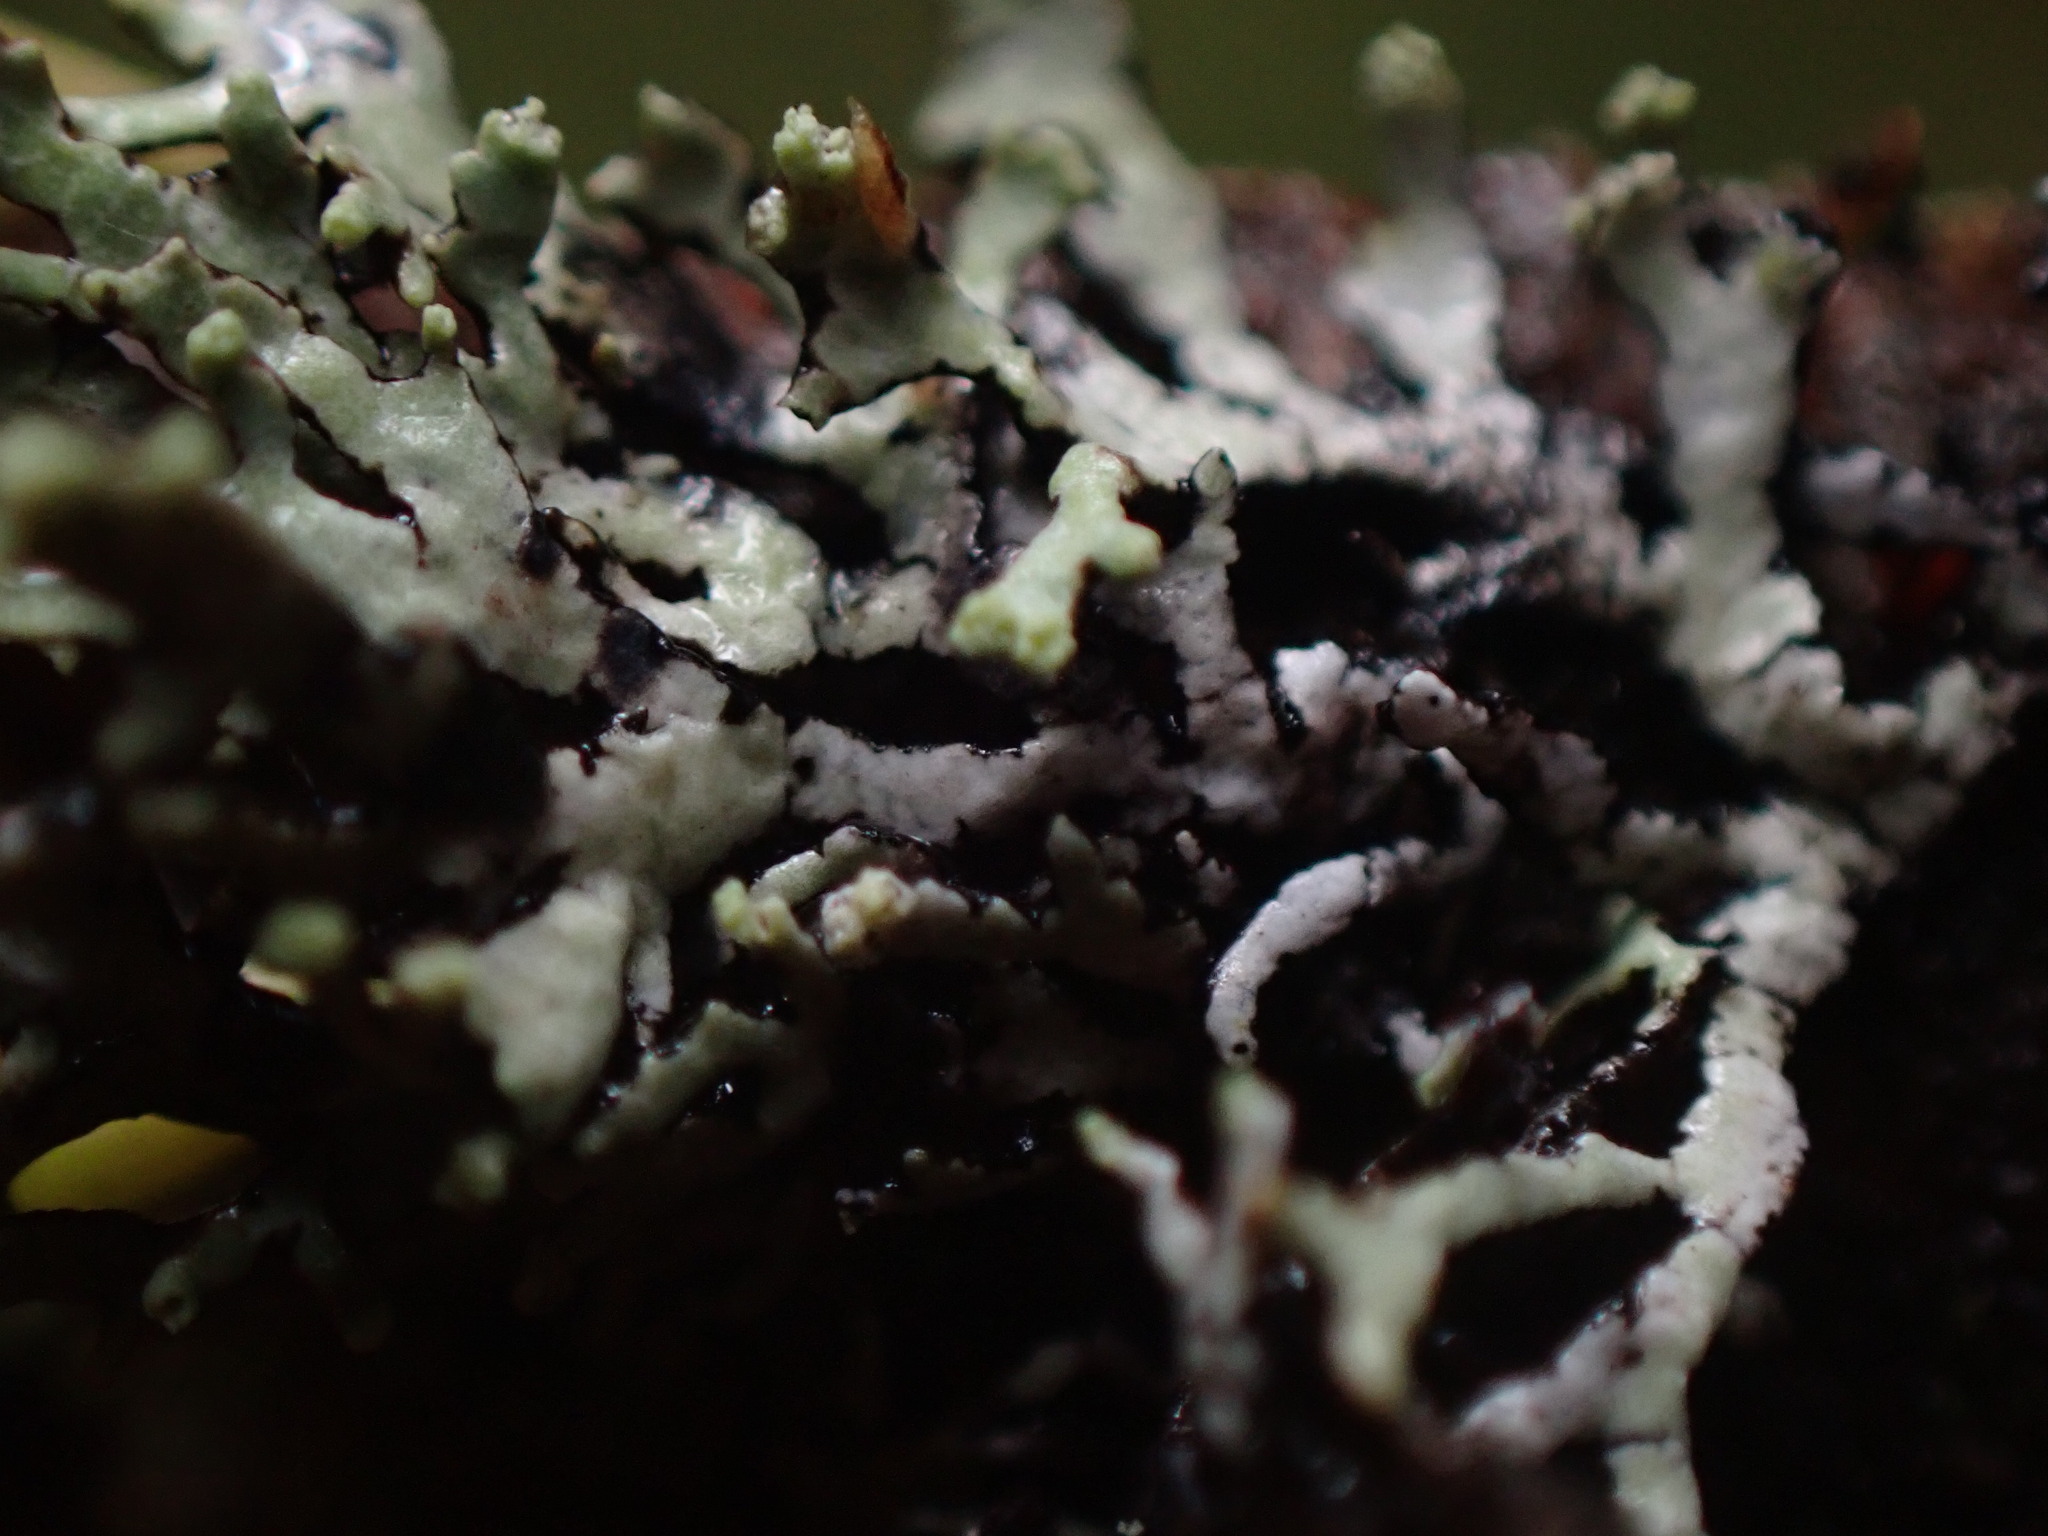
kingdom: Fungi
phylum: Ascomycota
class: Lecanoromycetes
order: Lecanorales
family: Parmeliaceae
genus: Hypogymnia
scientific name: Hypogymnia hultenii
